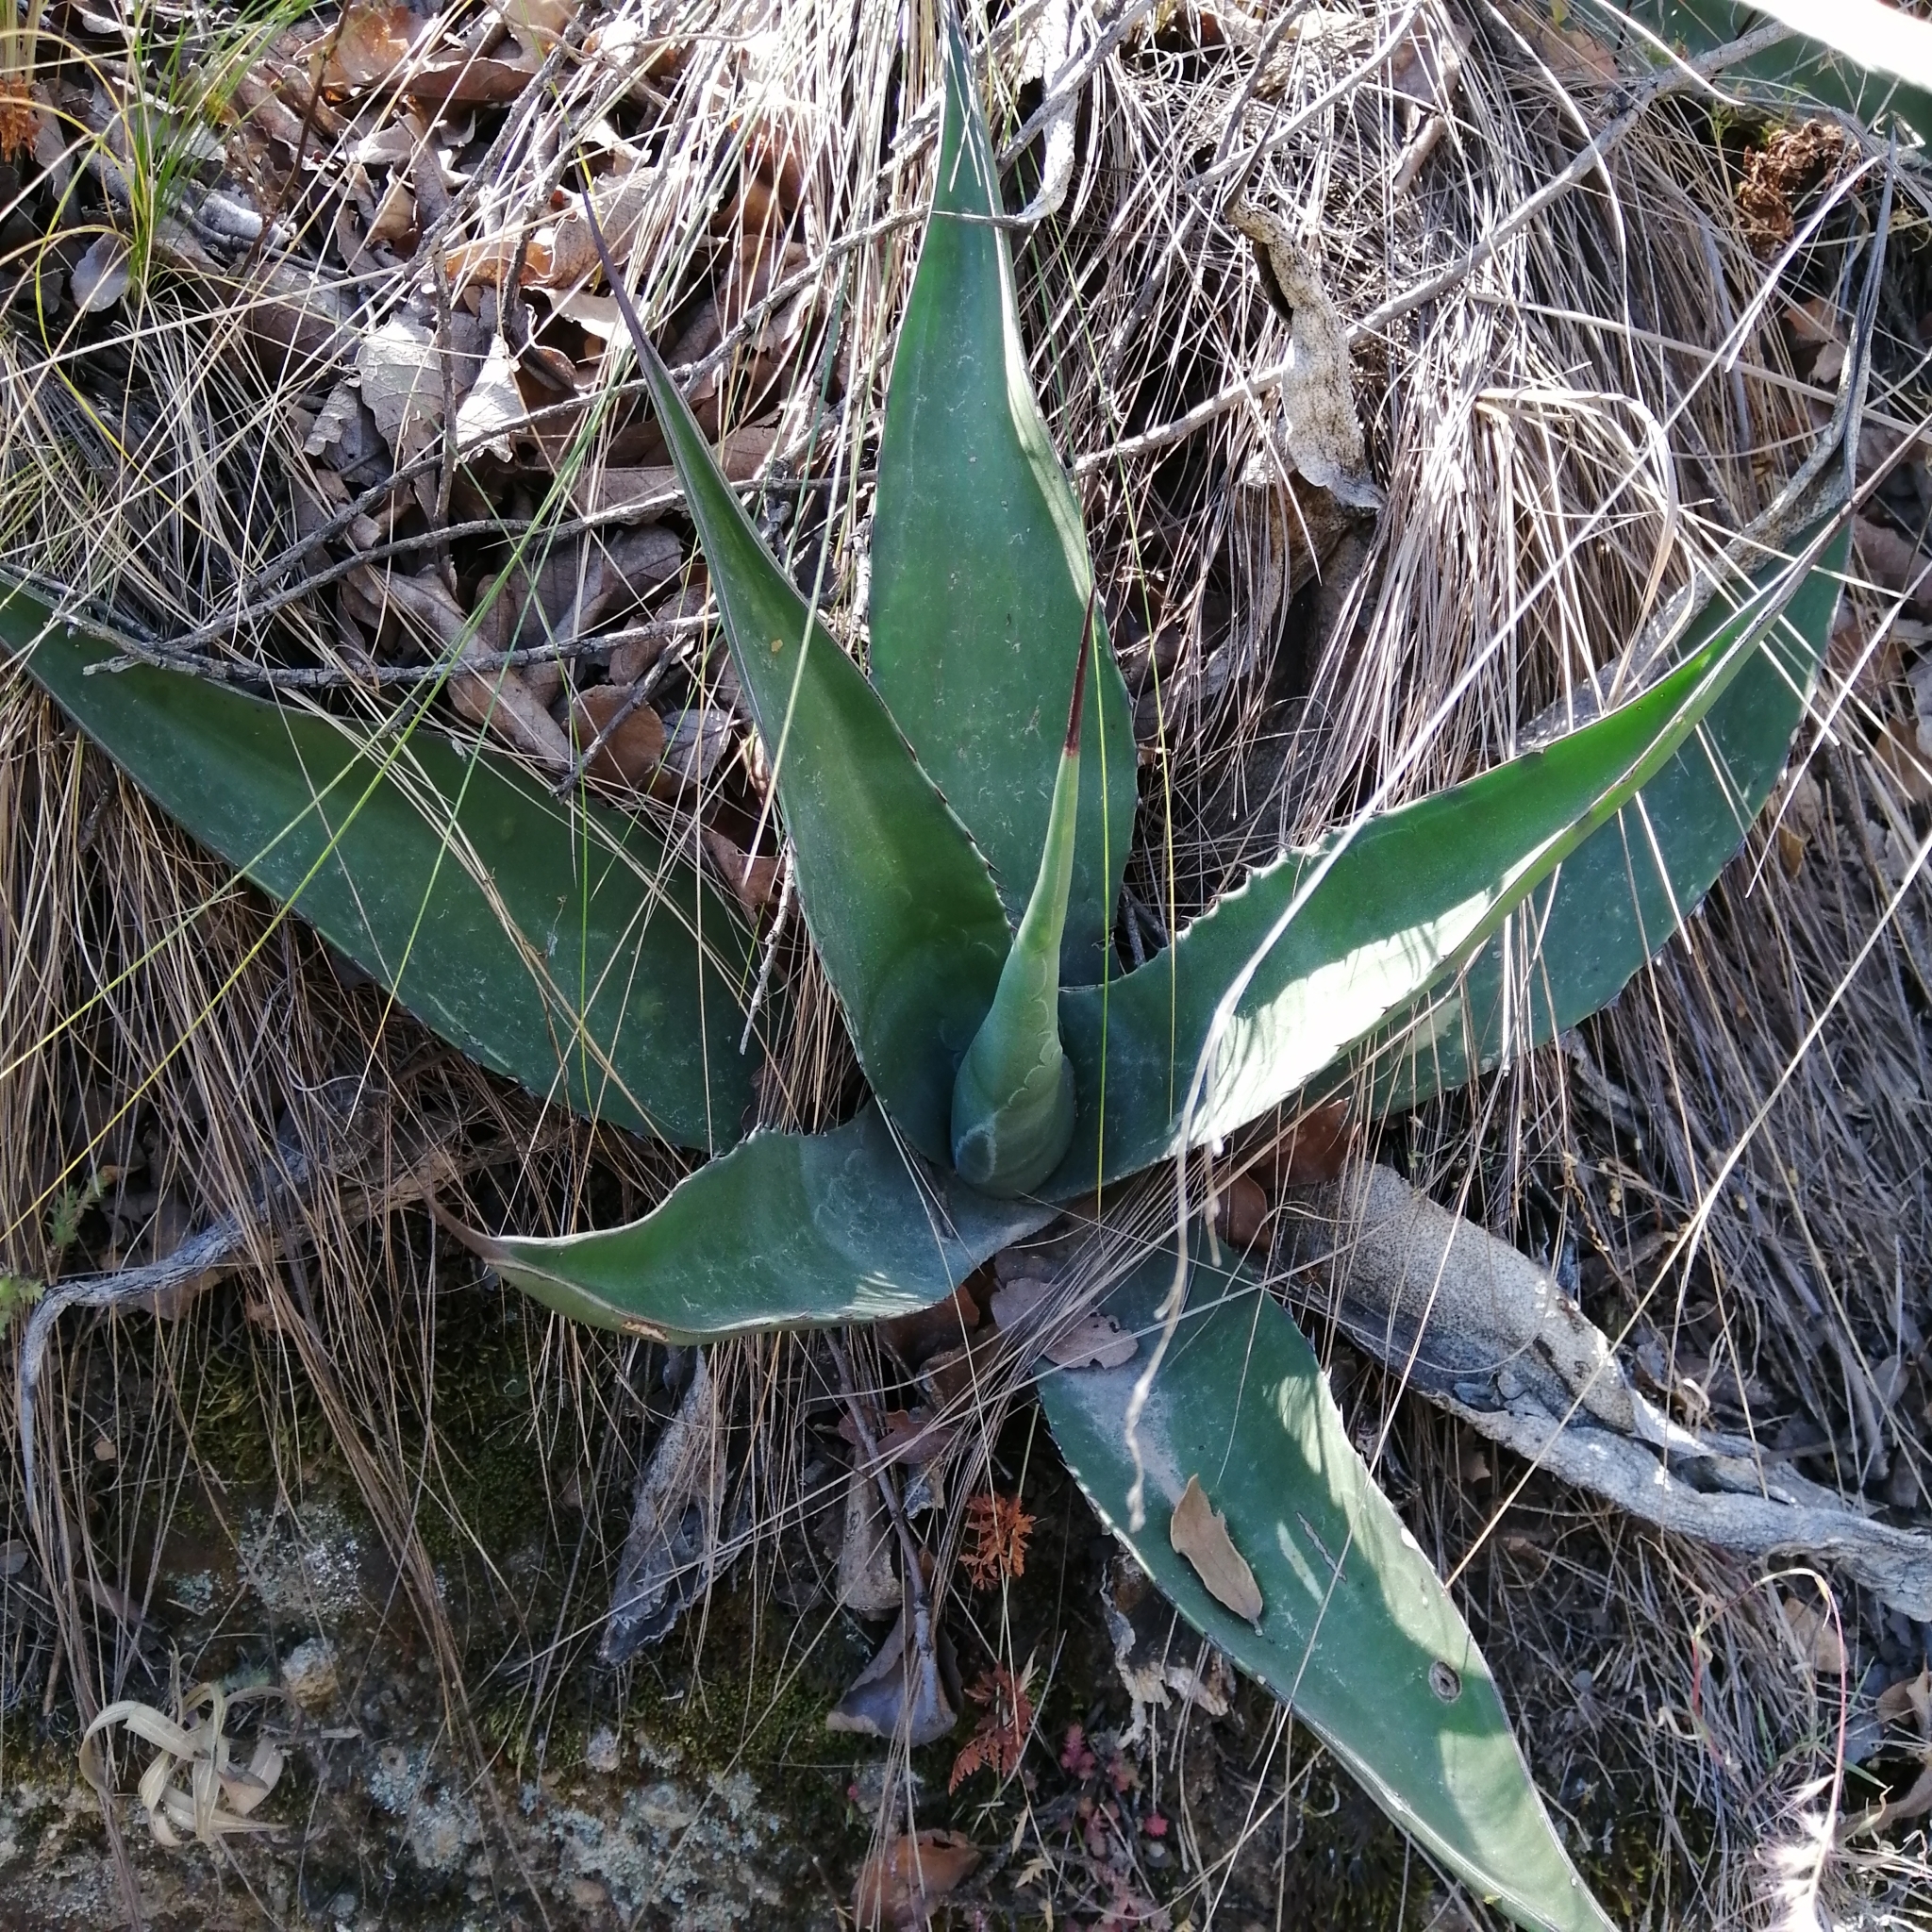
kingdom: Plantae
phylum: Tracheophyta
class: Liliopsida
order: Asparagales
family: Asparagaceae
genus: Agave
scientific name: Agave salmiana
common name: Pulque agave
